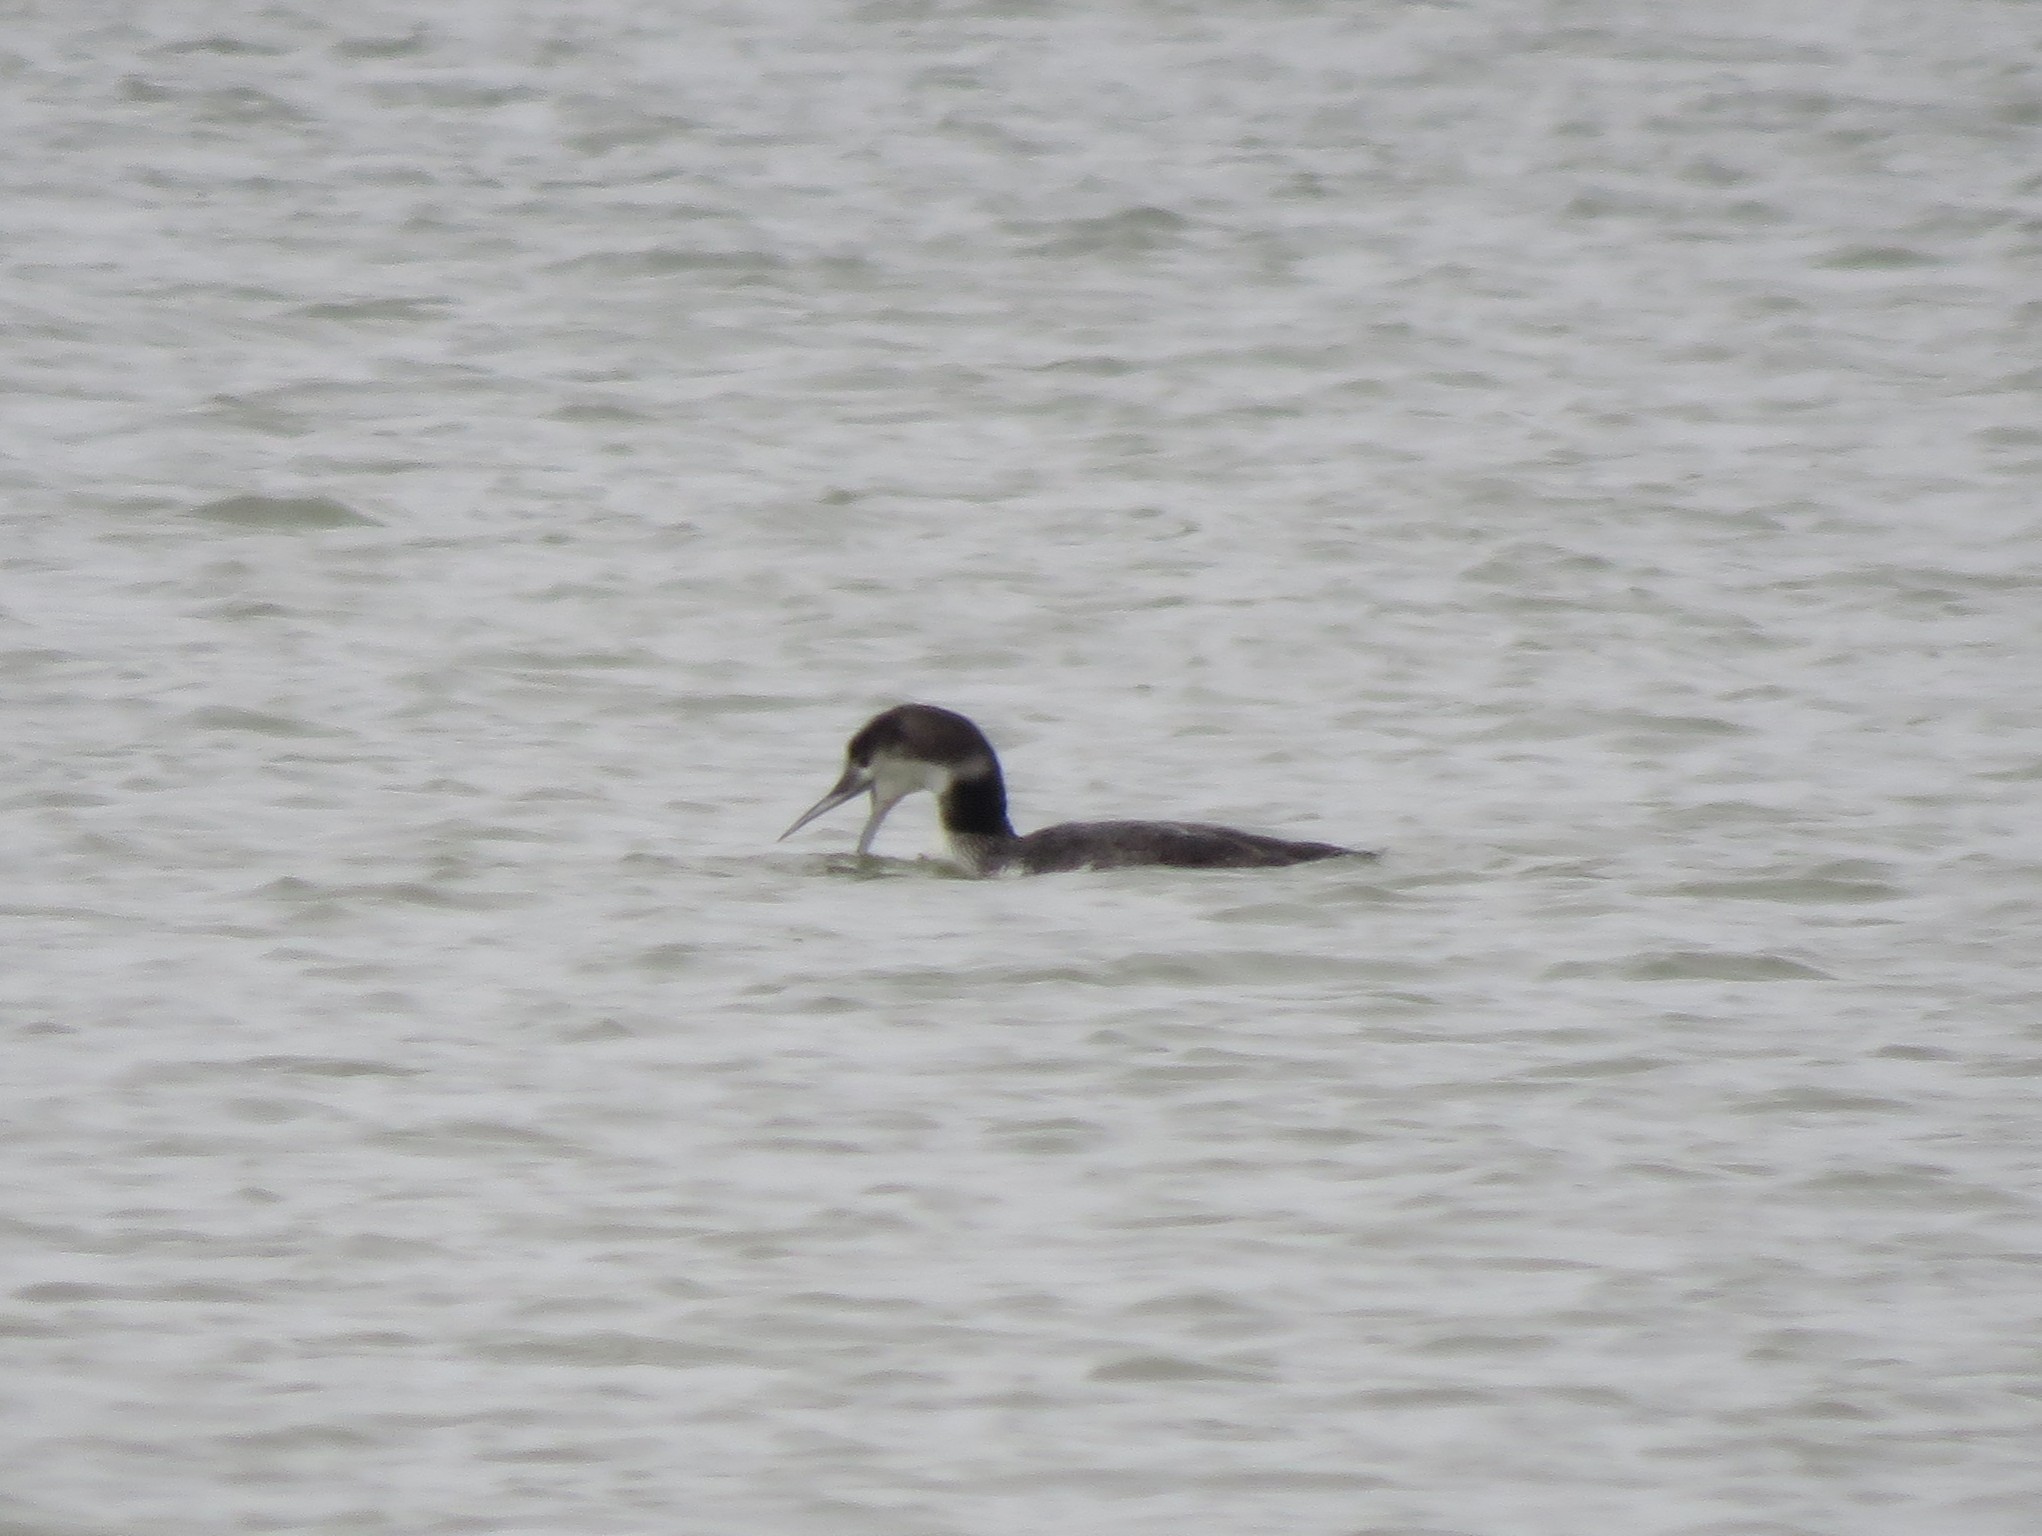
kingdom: Animalia
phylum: Chordata
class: Aves
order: Gaviiformes
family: Gaviidae
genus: Gavia
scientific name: Gavia immer
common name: Common loon
